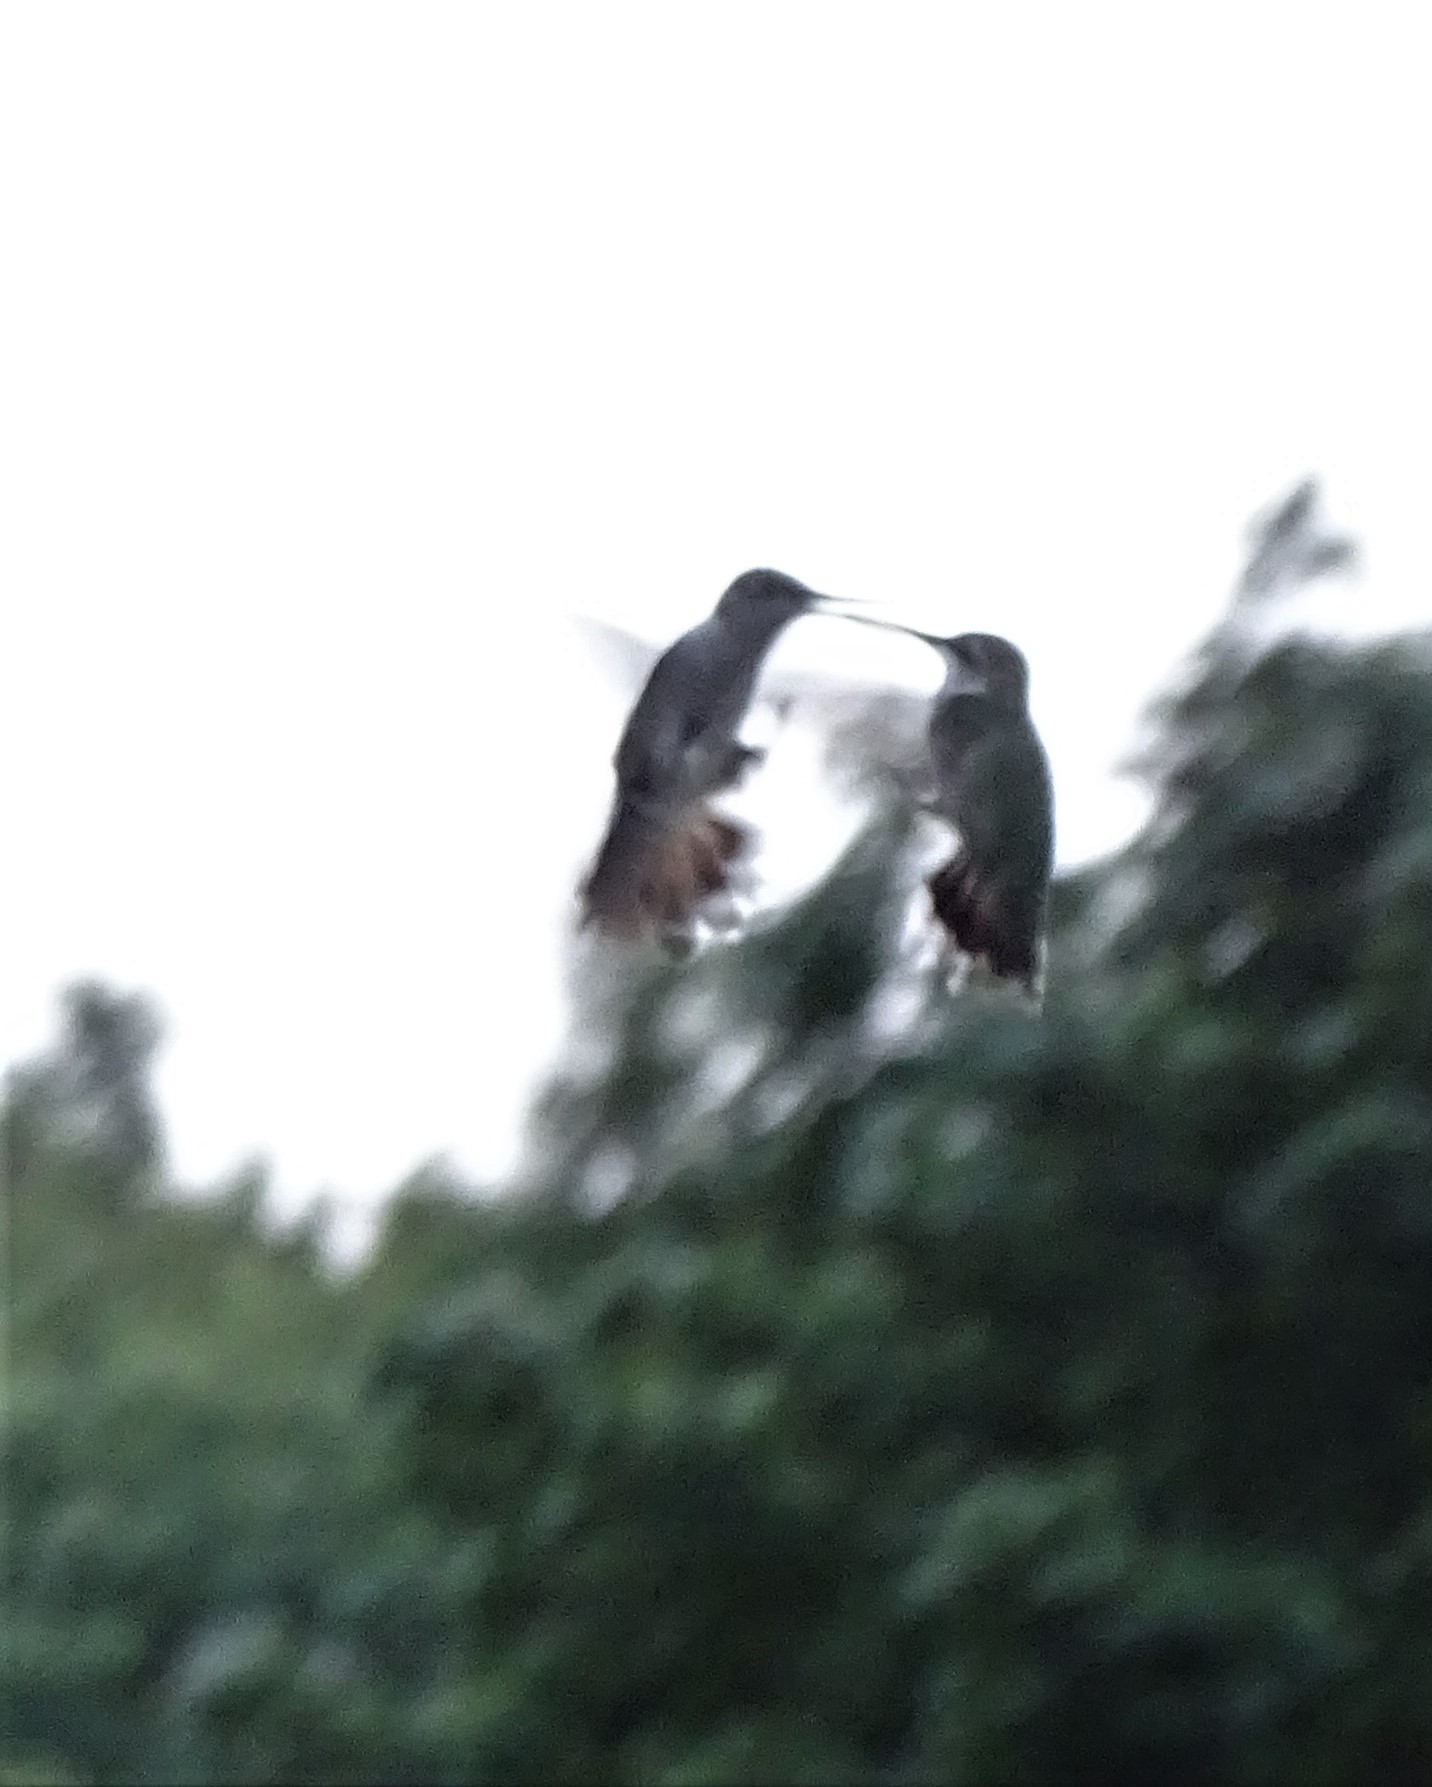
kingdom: Animalia
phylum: Chordata
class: Aves
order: Apodiformes
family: Trochilidae
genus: Archilochus
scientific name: Archilochus colubris
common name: Ruby-throated hummingbird
